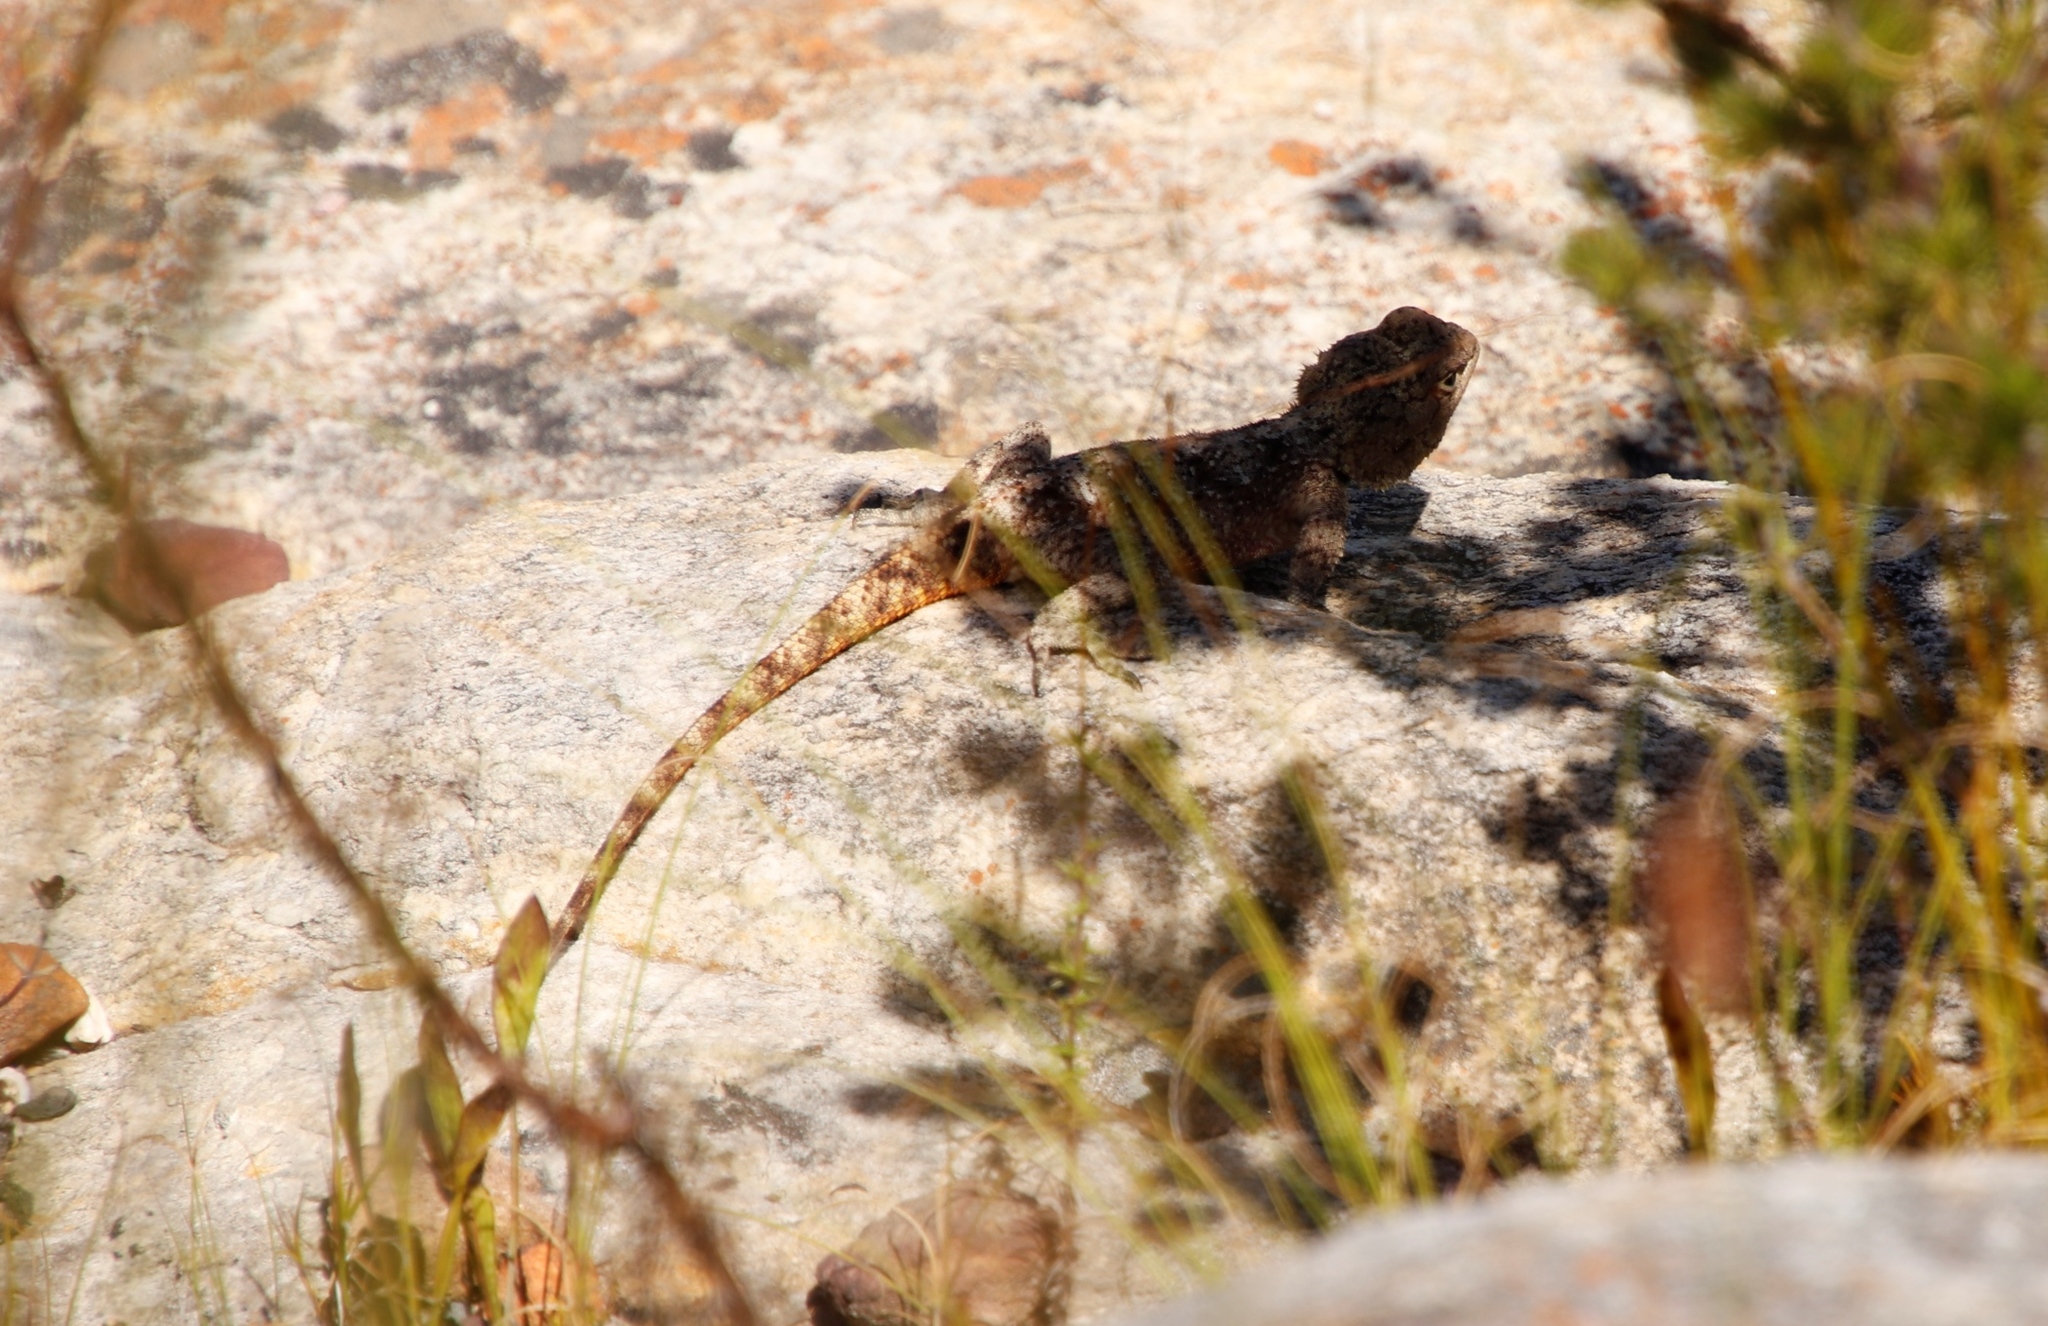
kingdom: Animalia
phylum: Chordata
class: Squamata
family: Agamidae
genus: Agama
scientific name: Agama atra
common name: Southern african rock agama
